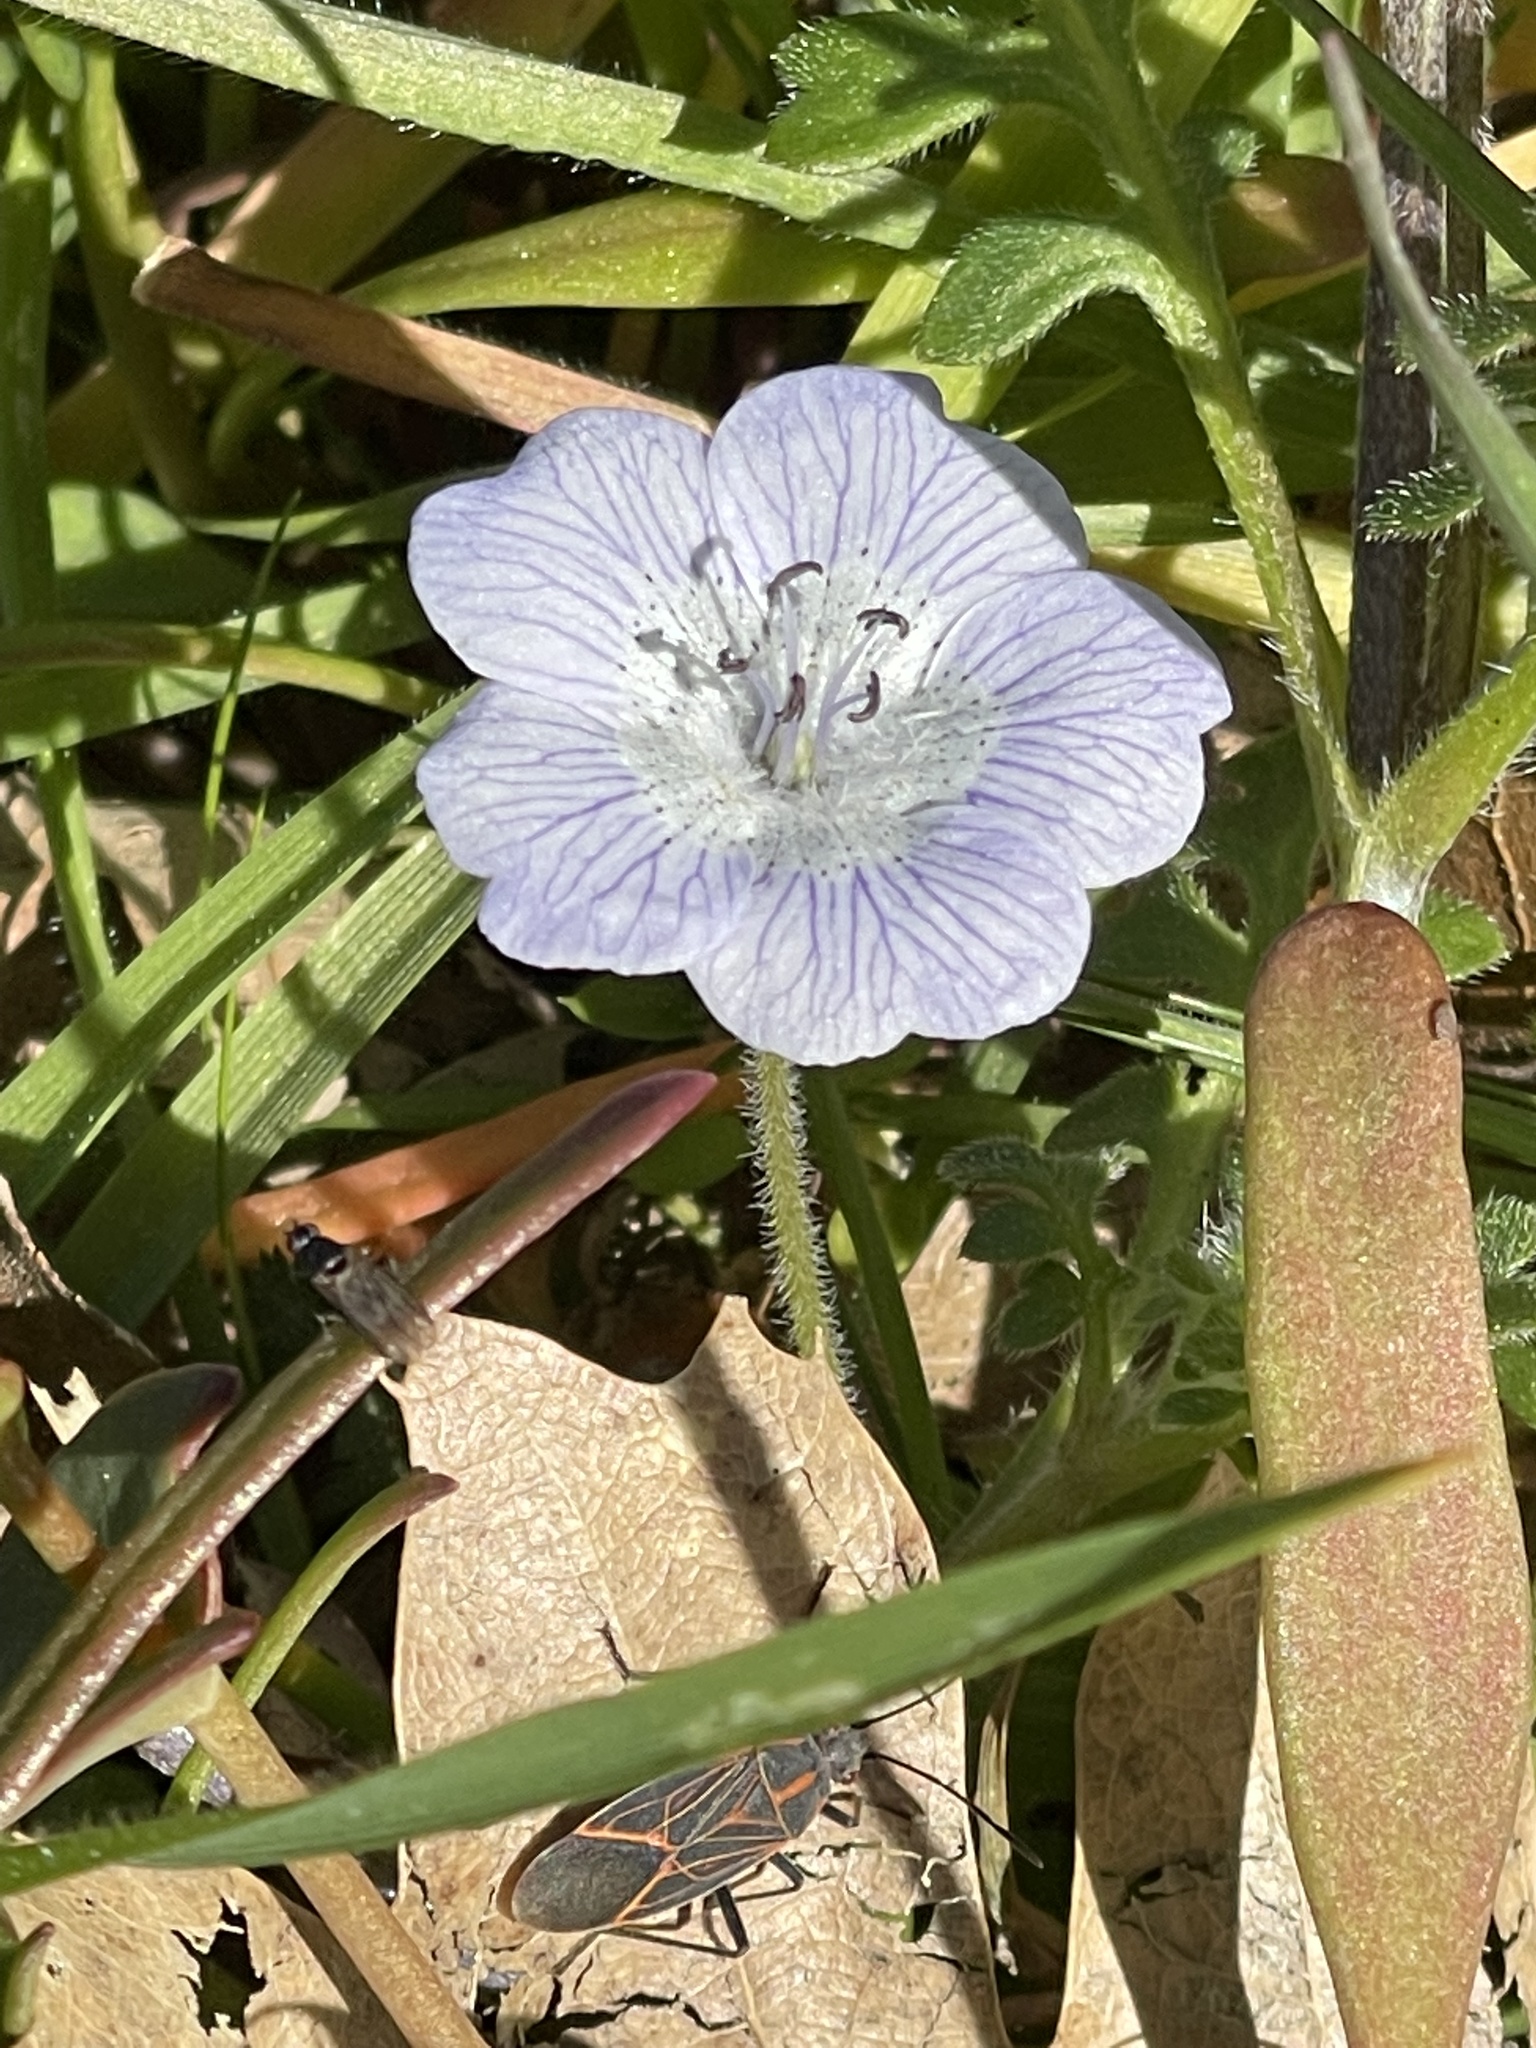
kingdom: Plantae
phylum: Tracheophyta
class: Magnoliopsida
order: Boraginales
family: Hydrophyllaceae
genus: Nemophila
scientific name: Nemophila menziesii
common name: Baby's-blue-eyes
